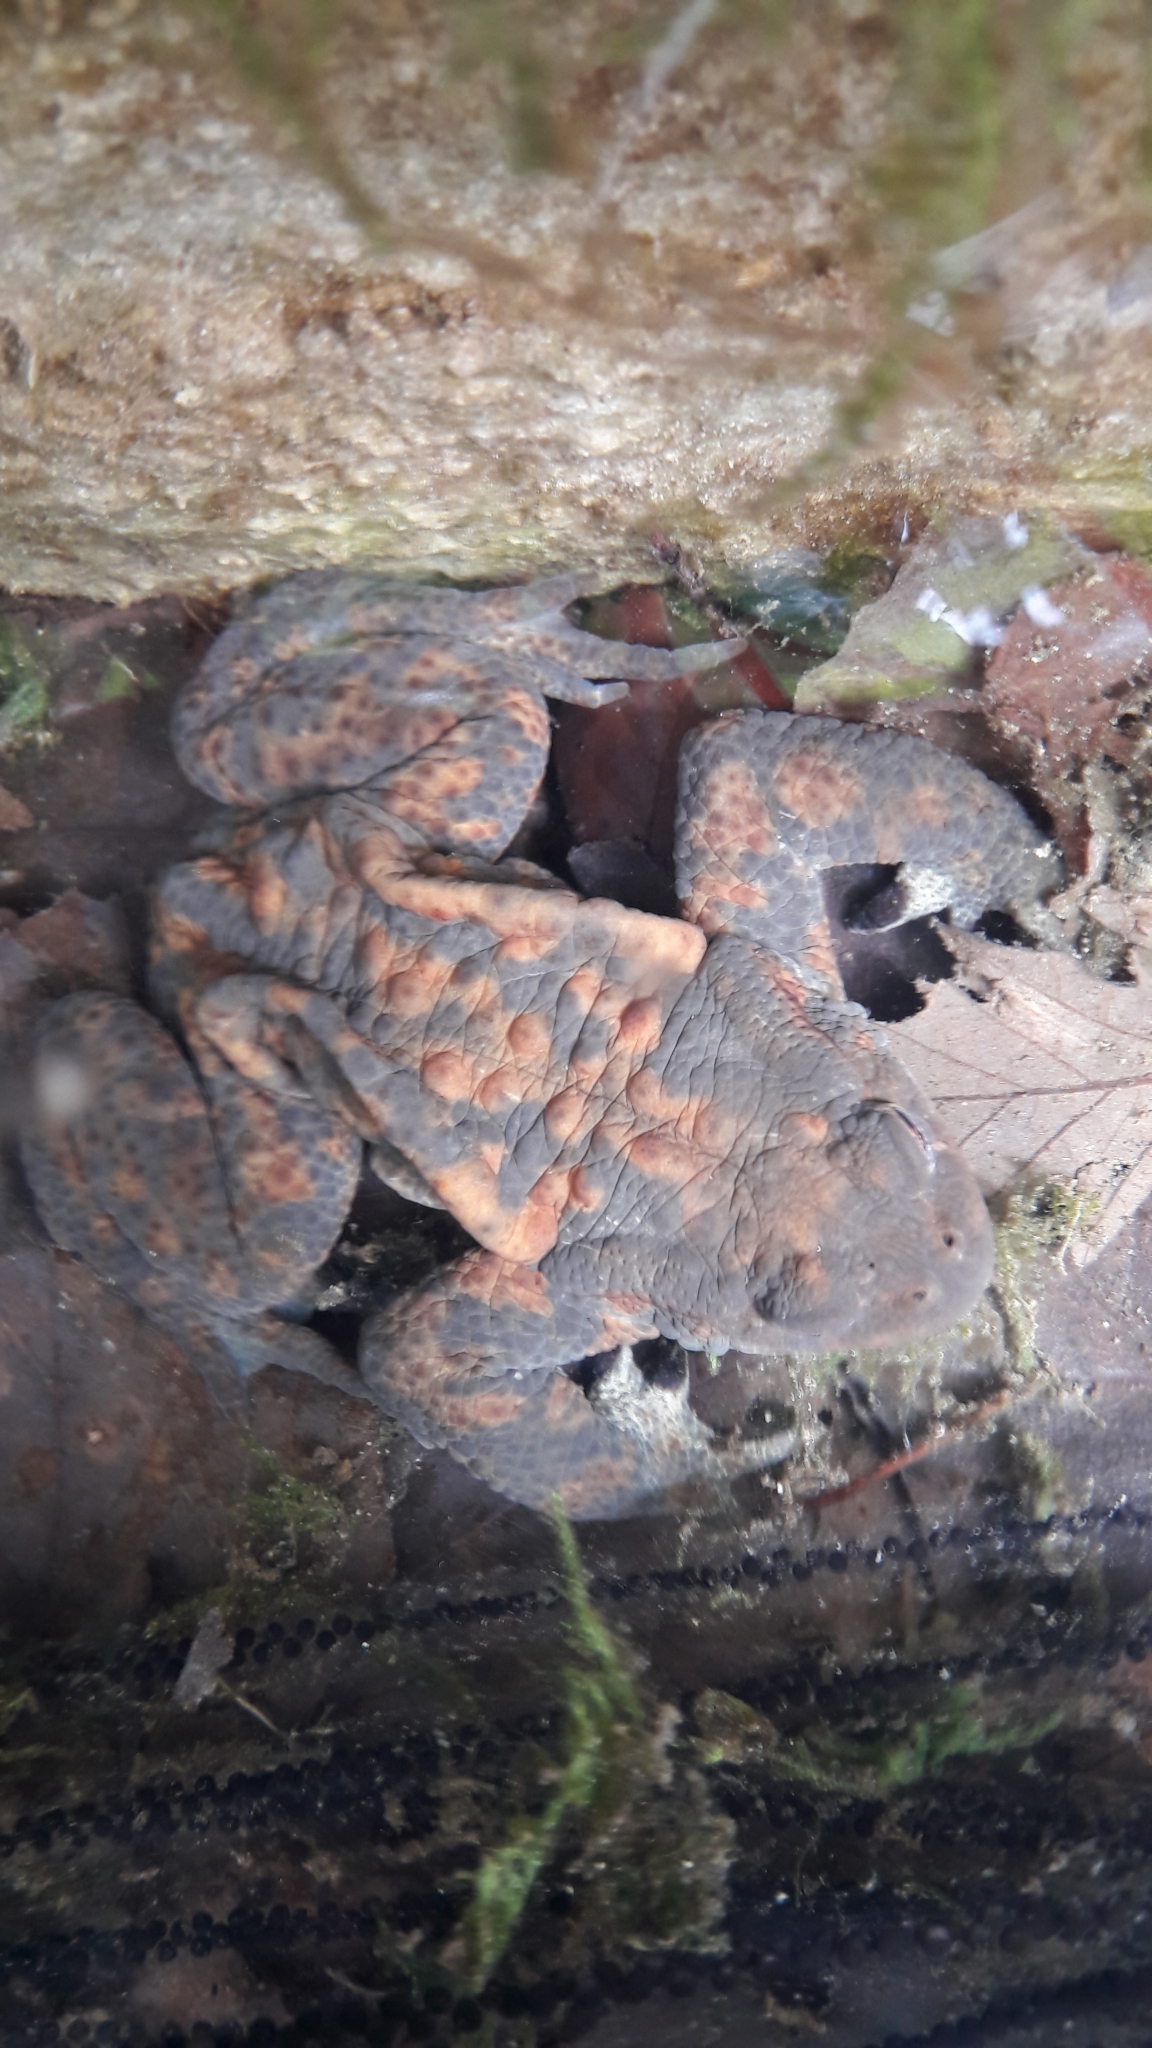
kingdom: Animalia
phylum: Chordata
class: Amphibia
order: Anura
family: Bufonidae
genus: Bufo
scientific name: Bufo bufo
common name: Common toad
